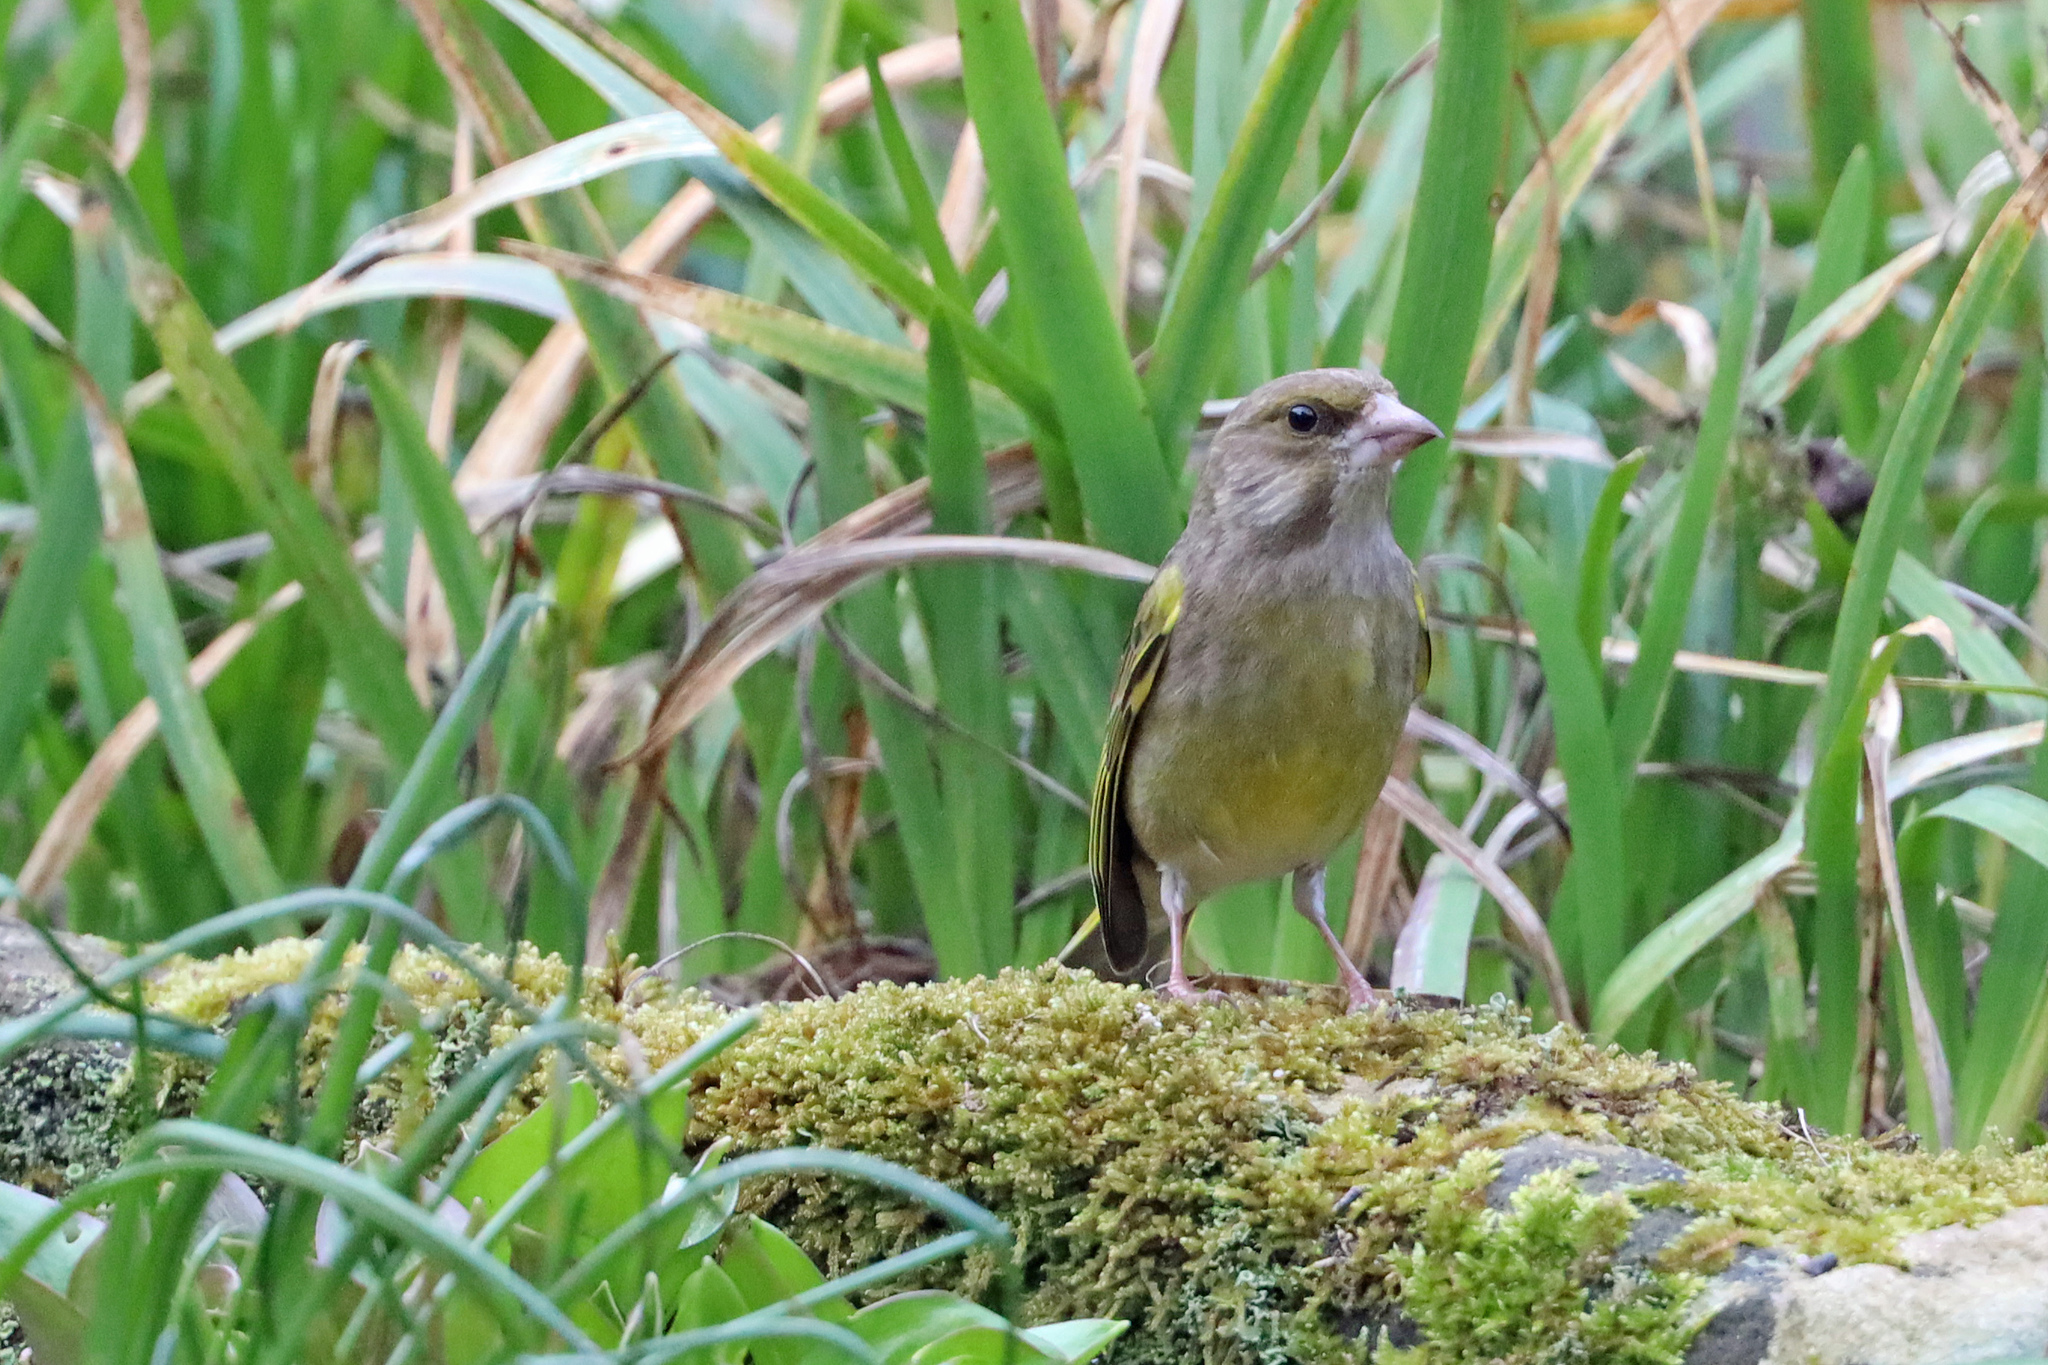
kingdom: Plantae
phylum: Tracheophyta
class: Liliopsida
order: Poales
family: Poaceae
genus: Chloris
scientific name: Chloris chloris
